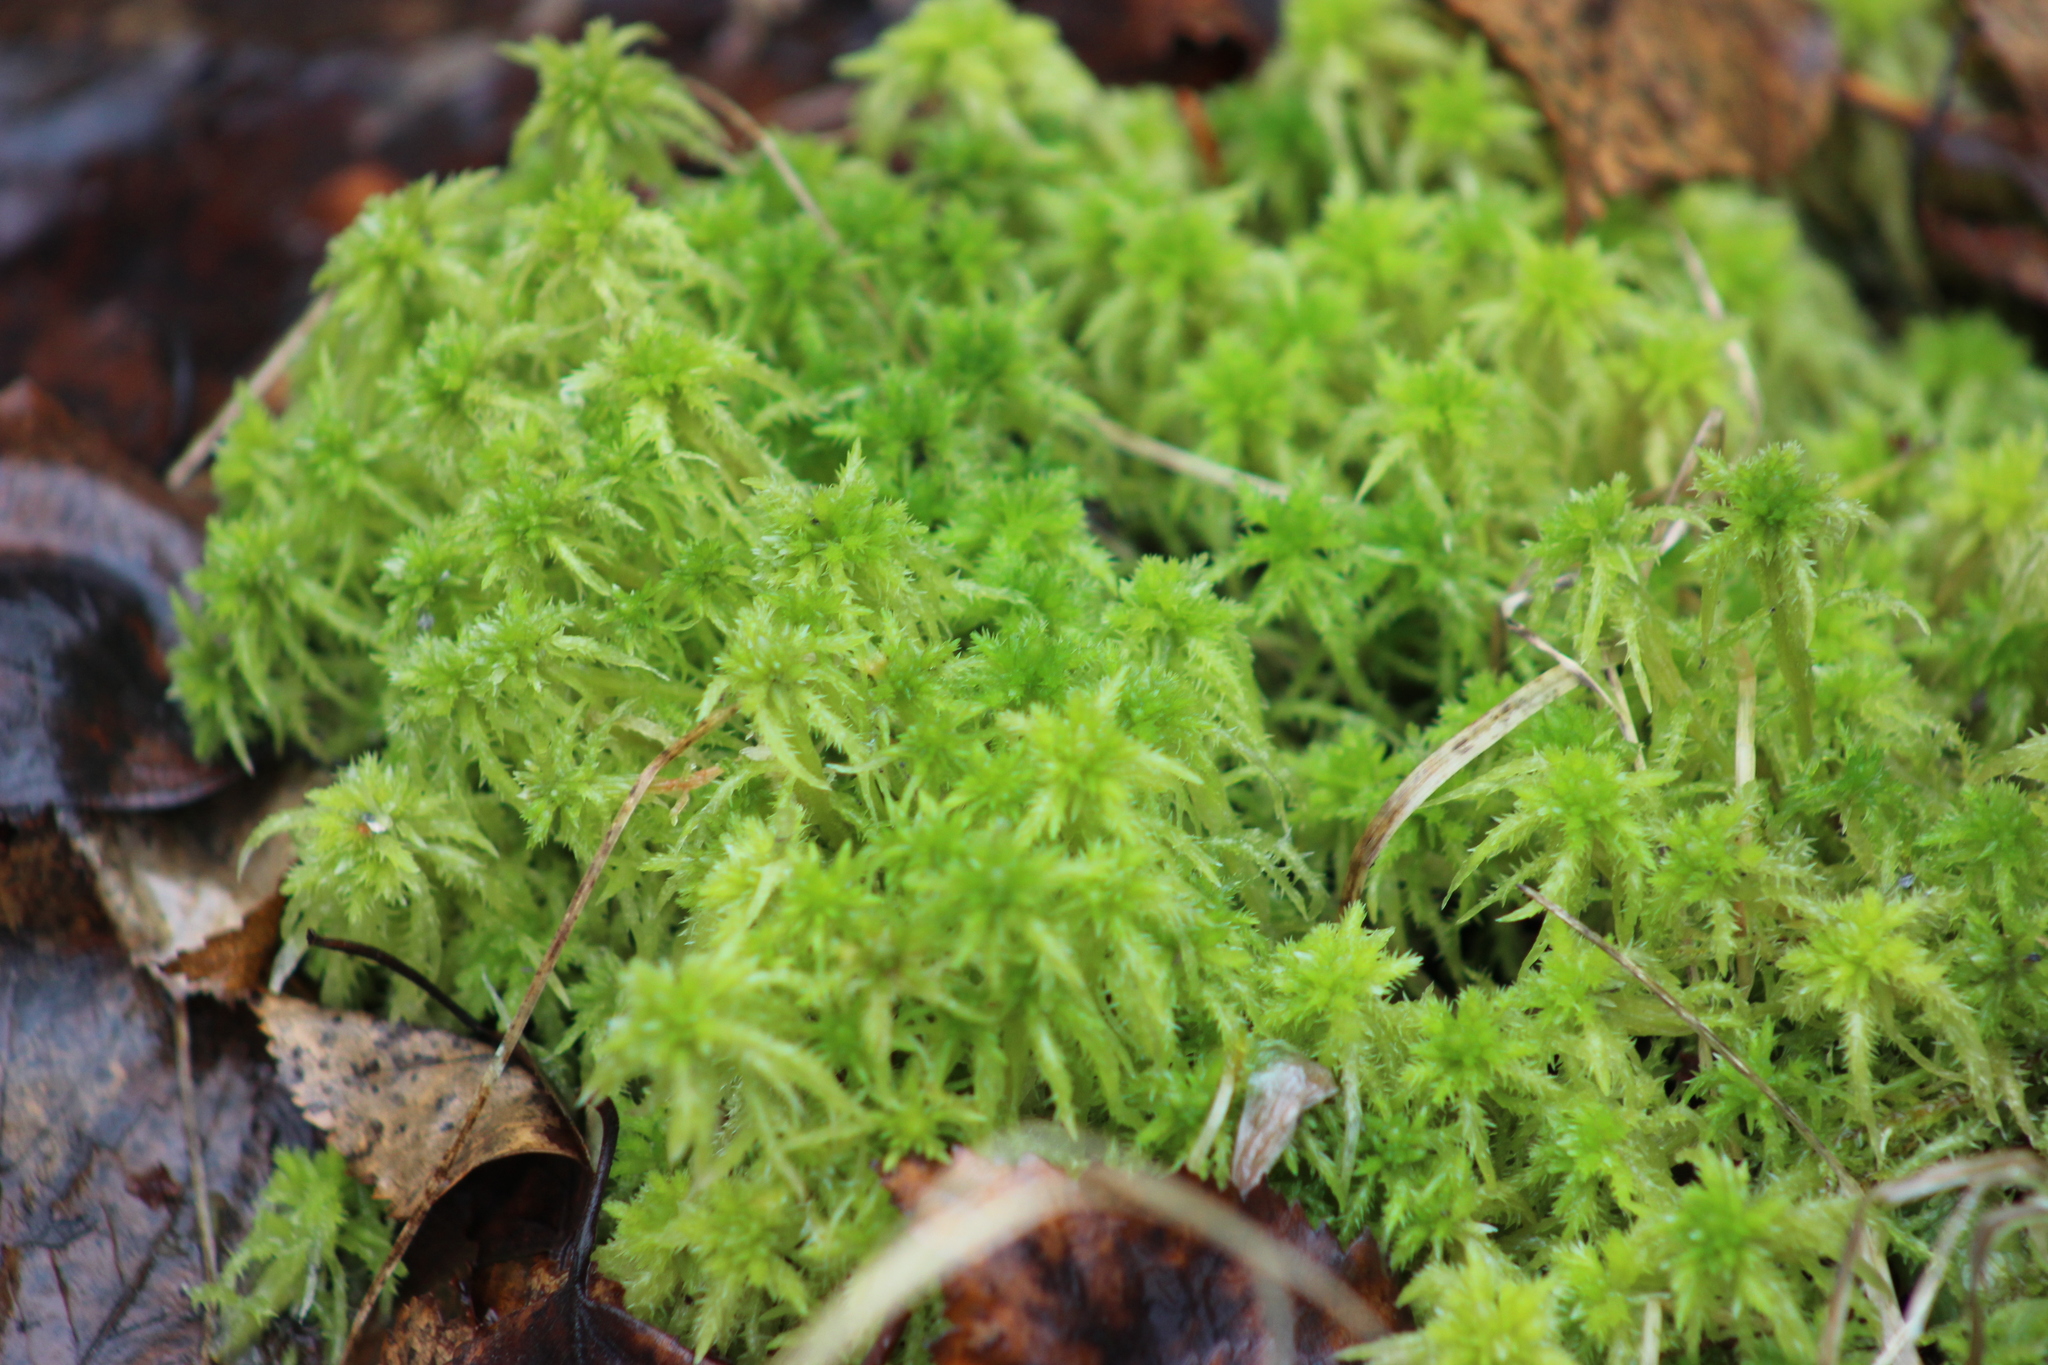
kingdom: Plantae
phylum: Bryophyta
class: Sphagnopsida
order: Sphagnales
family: Sphagnaceae
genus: Sphagnum
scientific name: Sphagnum squarrosum
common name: Shaggy peat moss
